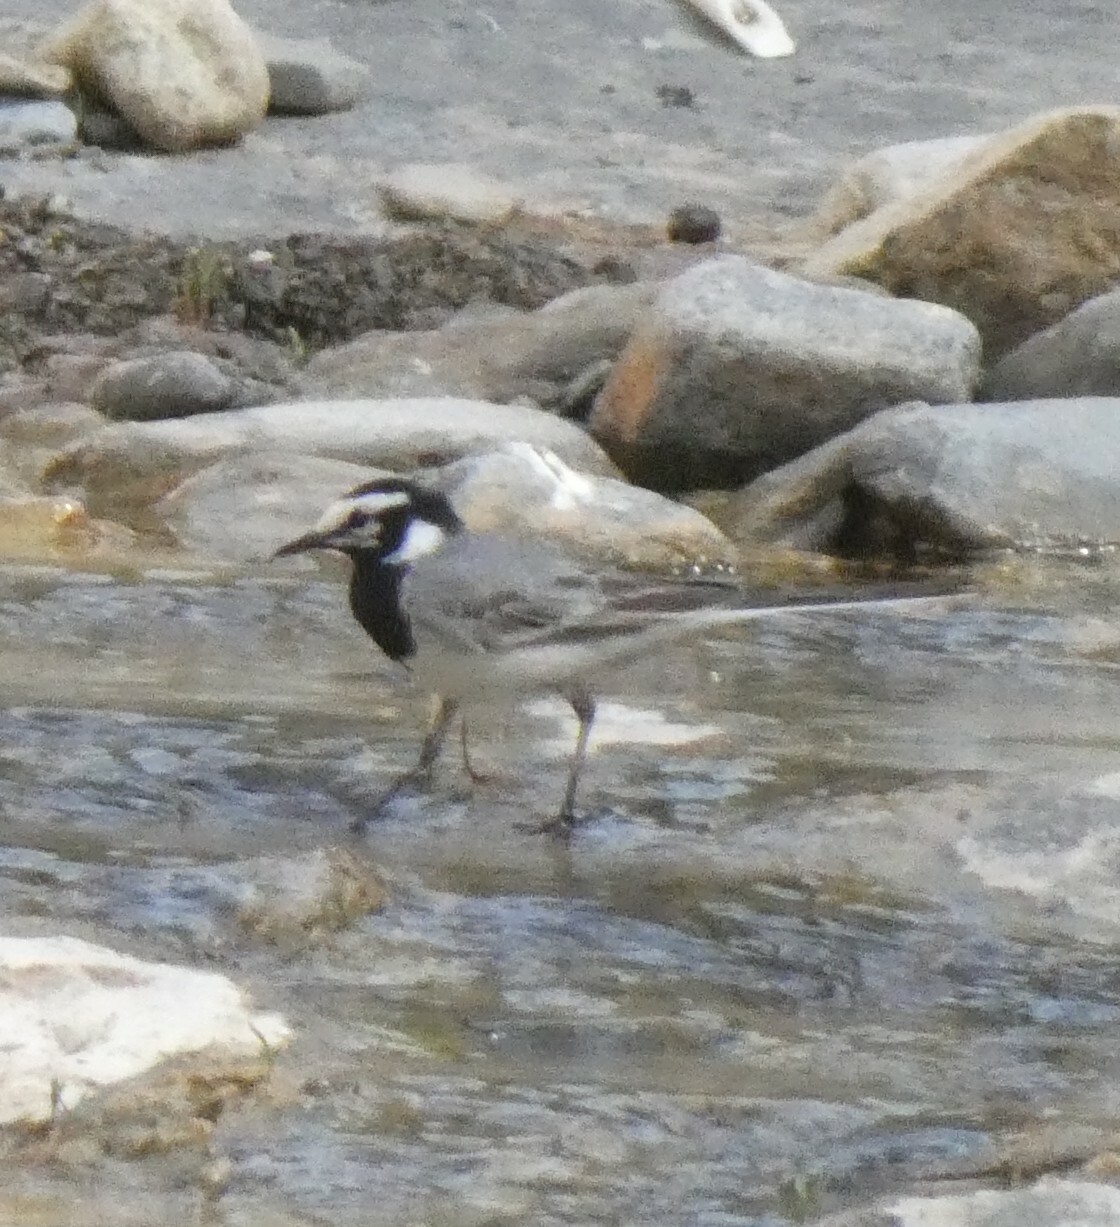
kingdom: Animalia
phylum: Chordata
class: Aves
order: Passeriformes
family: Motacillidae
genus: Motacilla
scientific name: Motacilla alba
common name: White wagtail
